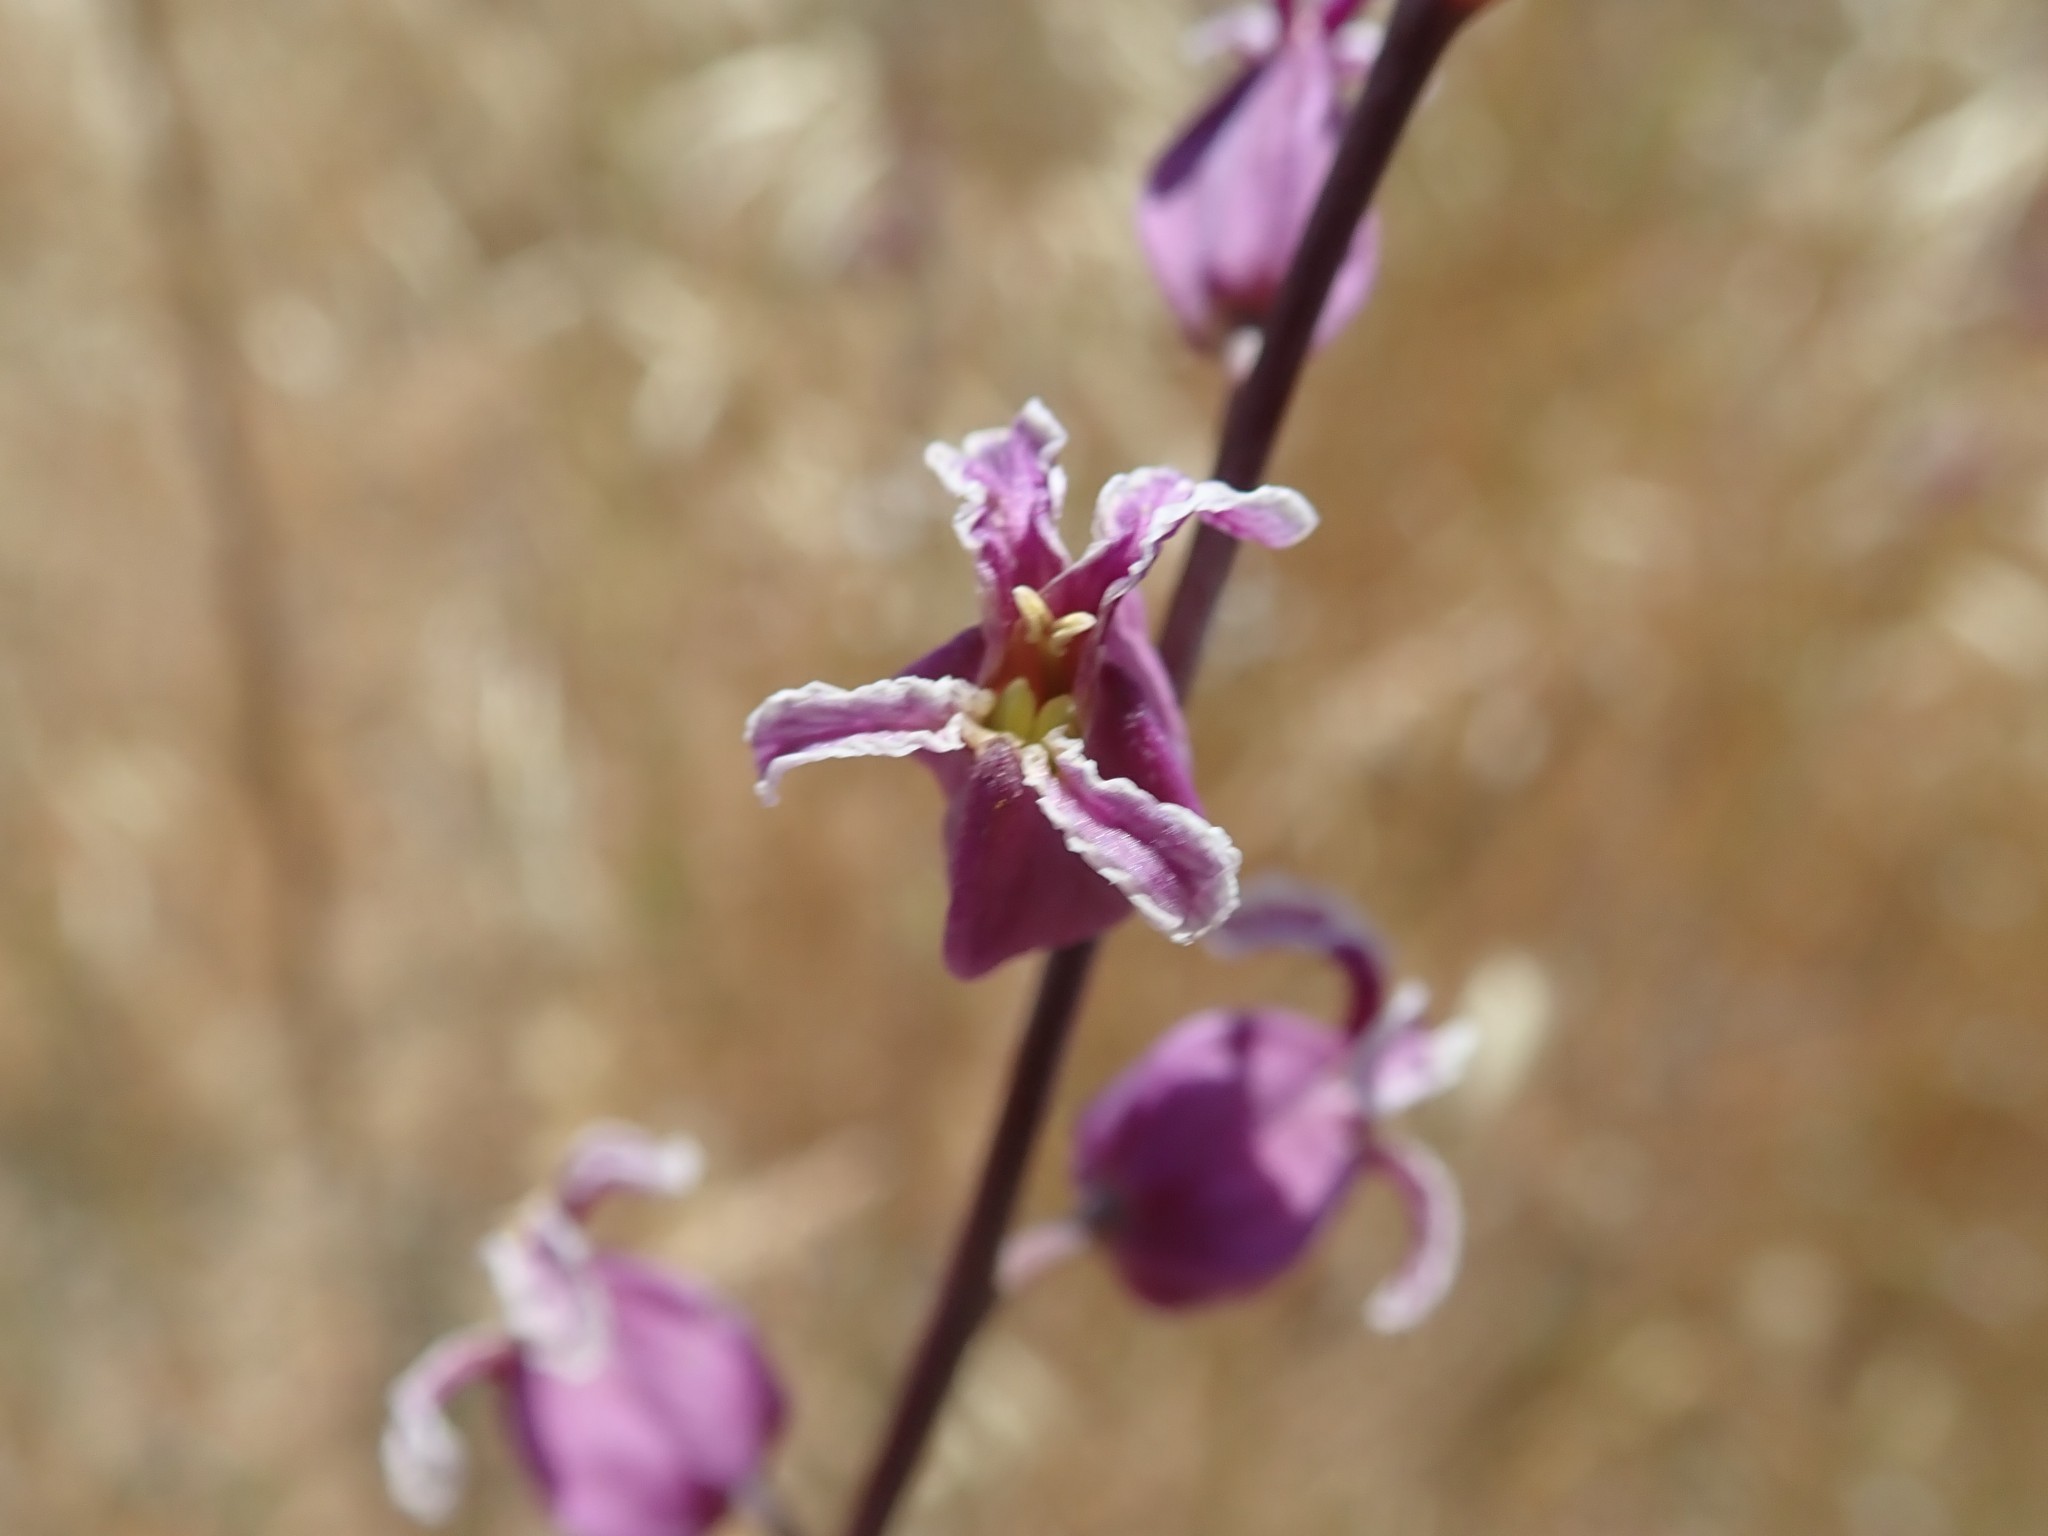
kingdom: Plantae
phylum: Tracheophyta
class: Magnoliopsida
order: Brassicales
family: Brassicaceae
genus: Streptanthus
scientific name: Streptanthus glandulosus
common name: Jewel-flower
